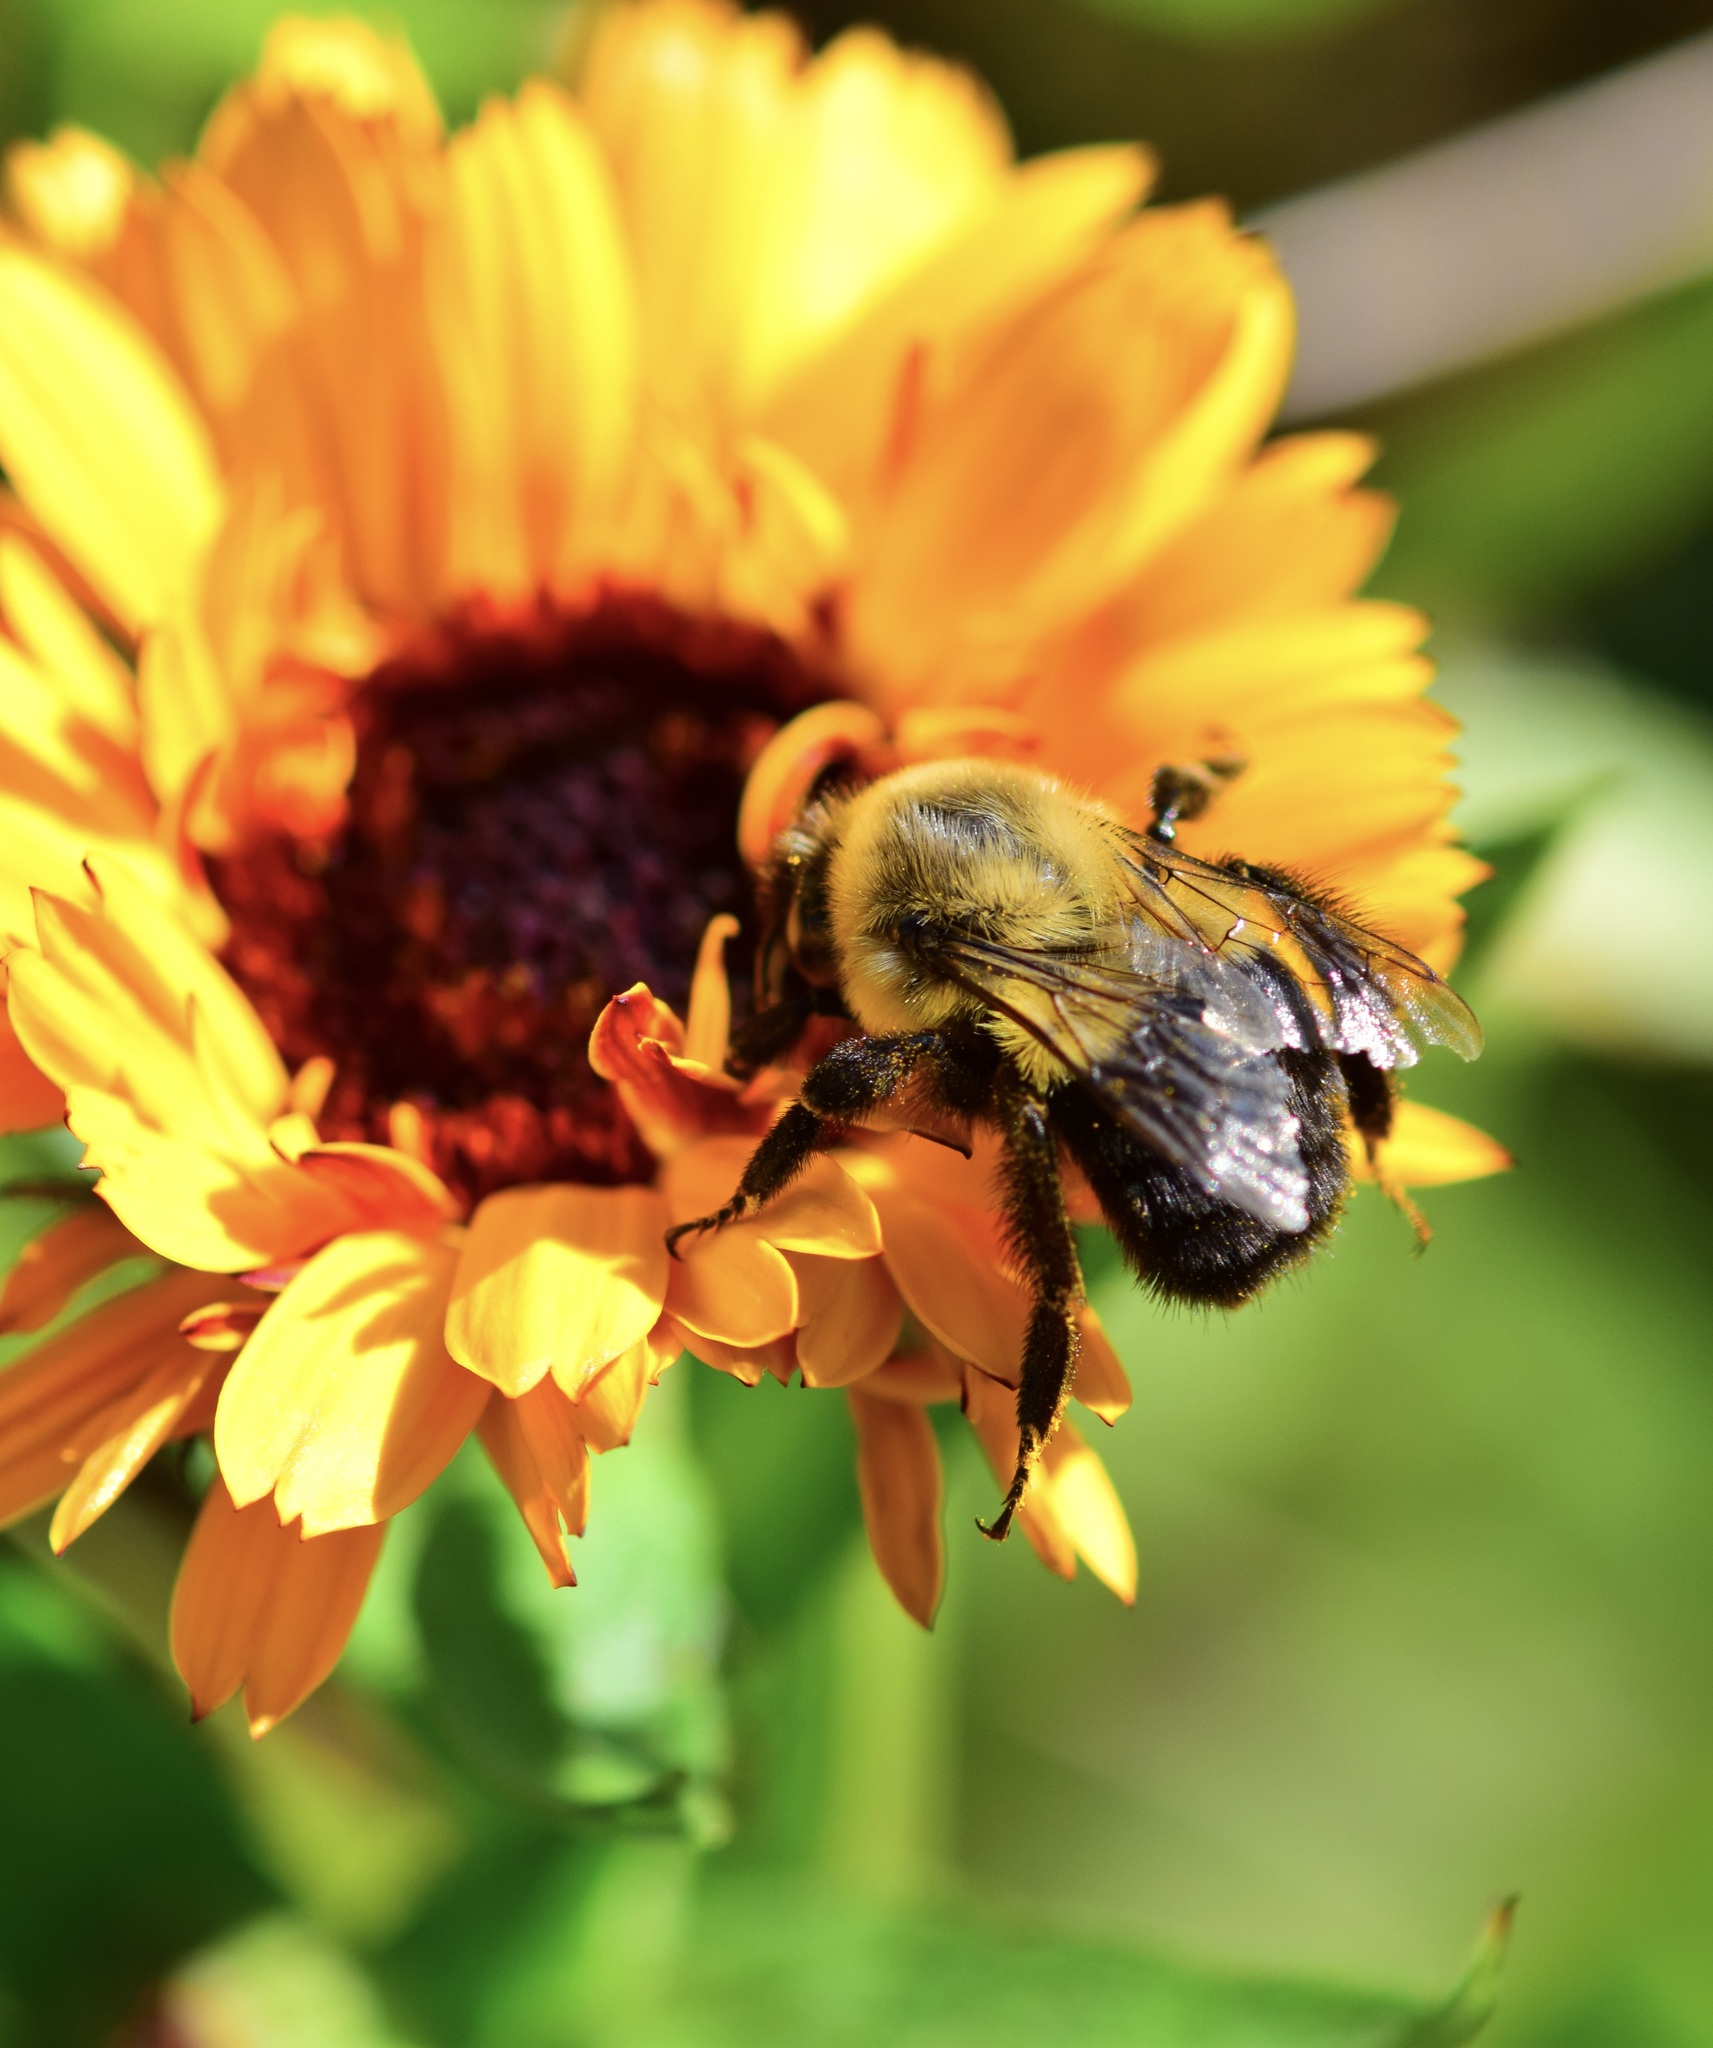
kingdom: Animalia
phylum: Arthropoda
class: Insecta
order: Hymenoptera
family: Apidae
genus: Bombus
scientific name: Bombus impatiens
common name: Common eastern bumble bee
